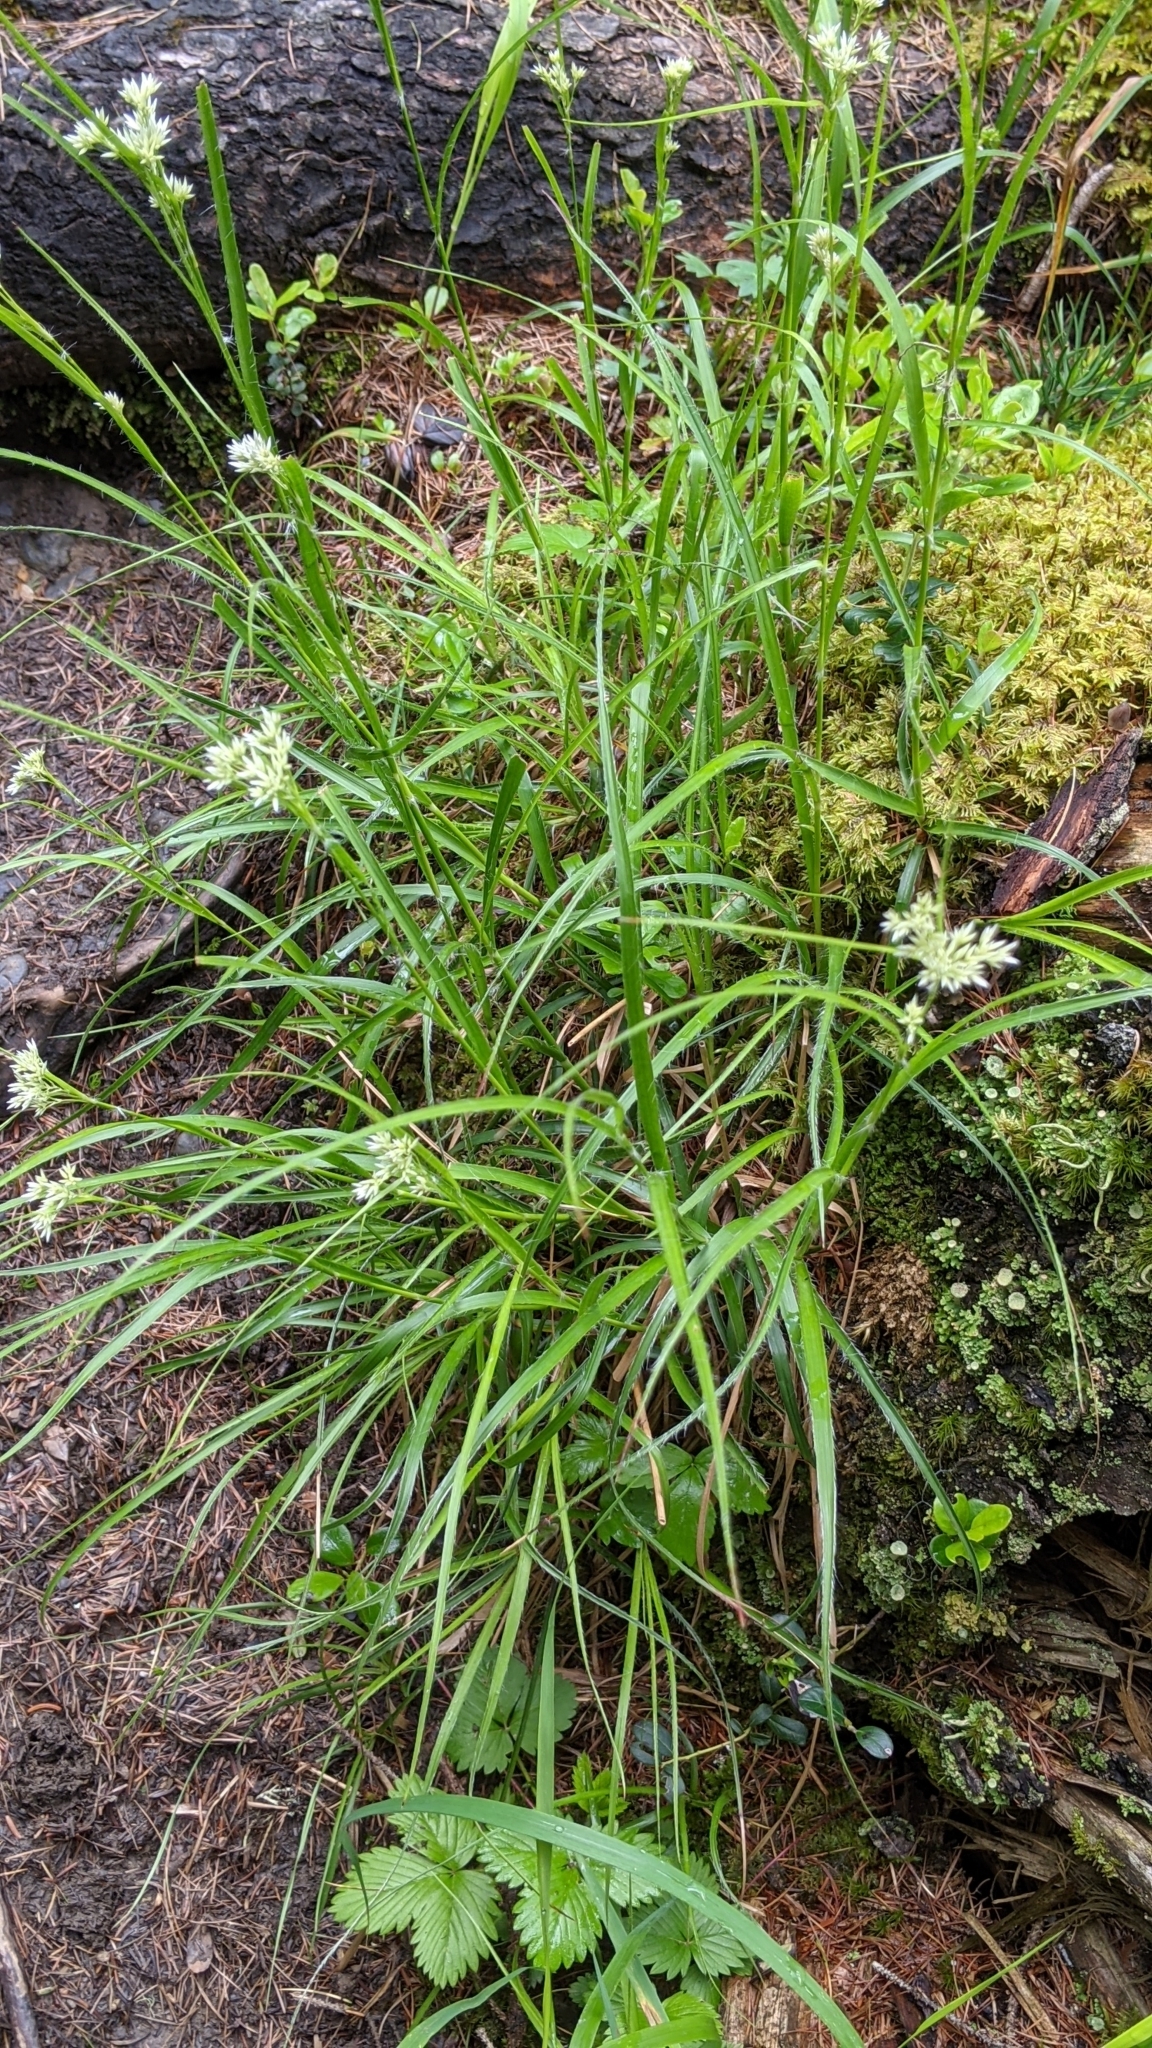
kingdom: Plantae
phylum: Tracheophyta
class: Liliopsida
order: Poales
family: Juncaceae
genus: Luzula
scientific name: Luzula nivea
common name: Snow-white wood-rush
